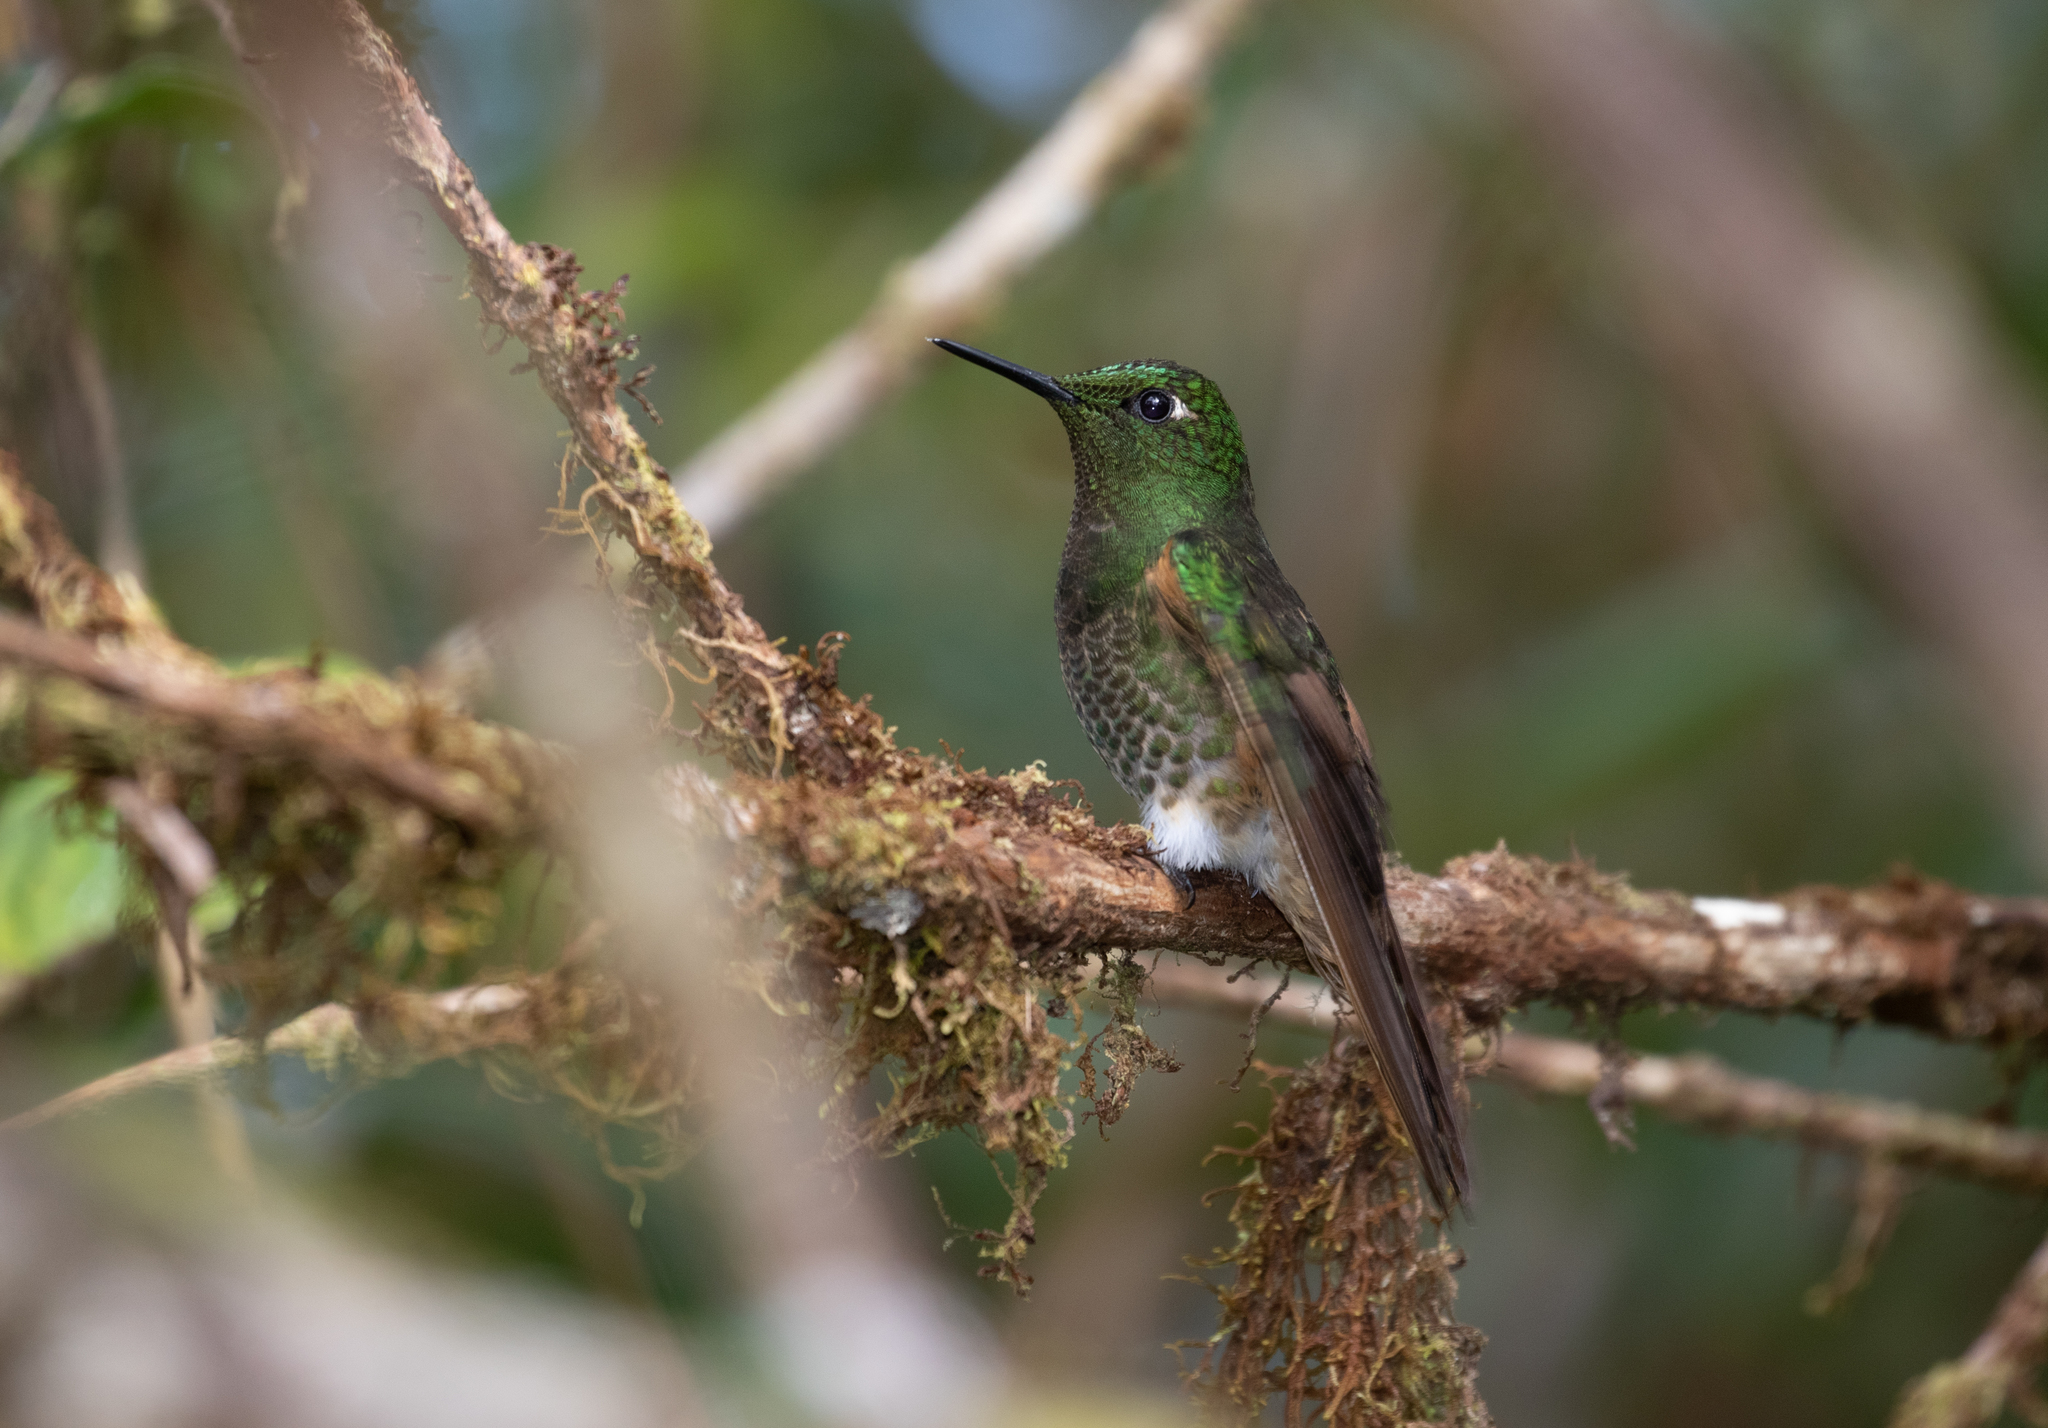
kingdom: Animalia
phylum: Chordata
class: Aves
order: Apodiformes
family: Trochilidae
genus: Boissonneaua
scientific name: Boissonneaua flavescens
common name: Buff-tailed coronet
